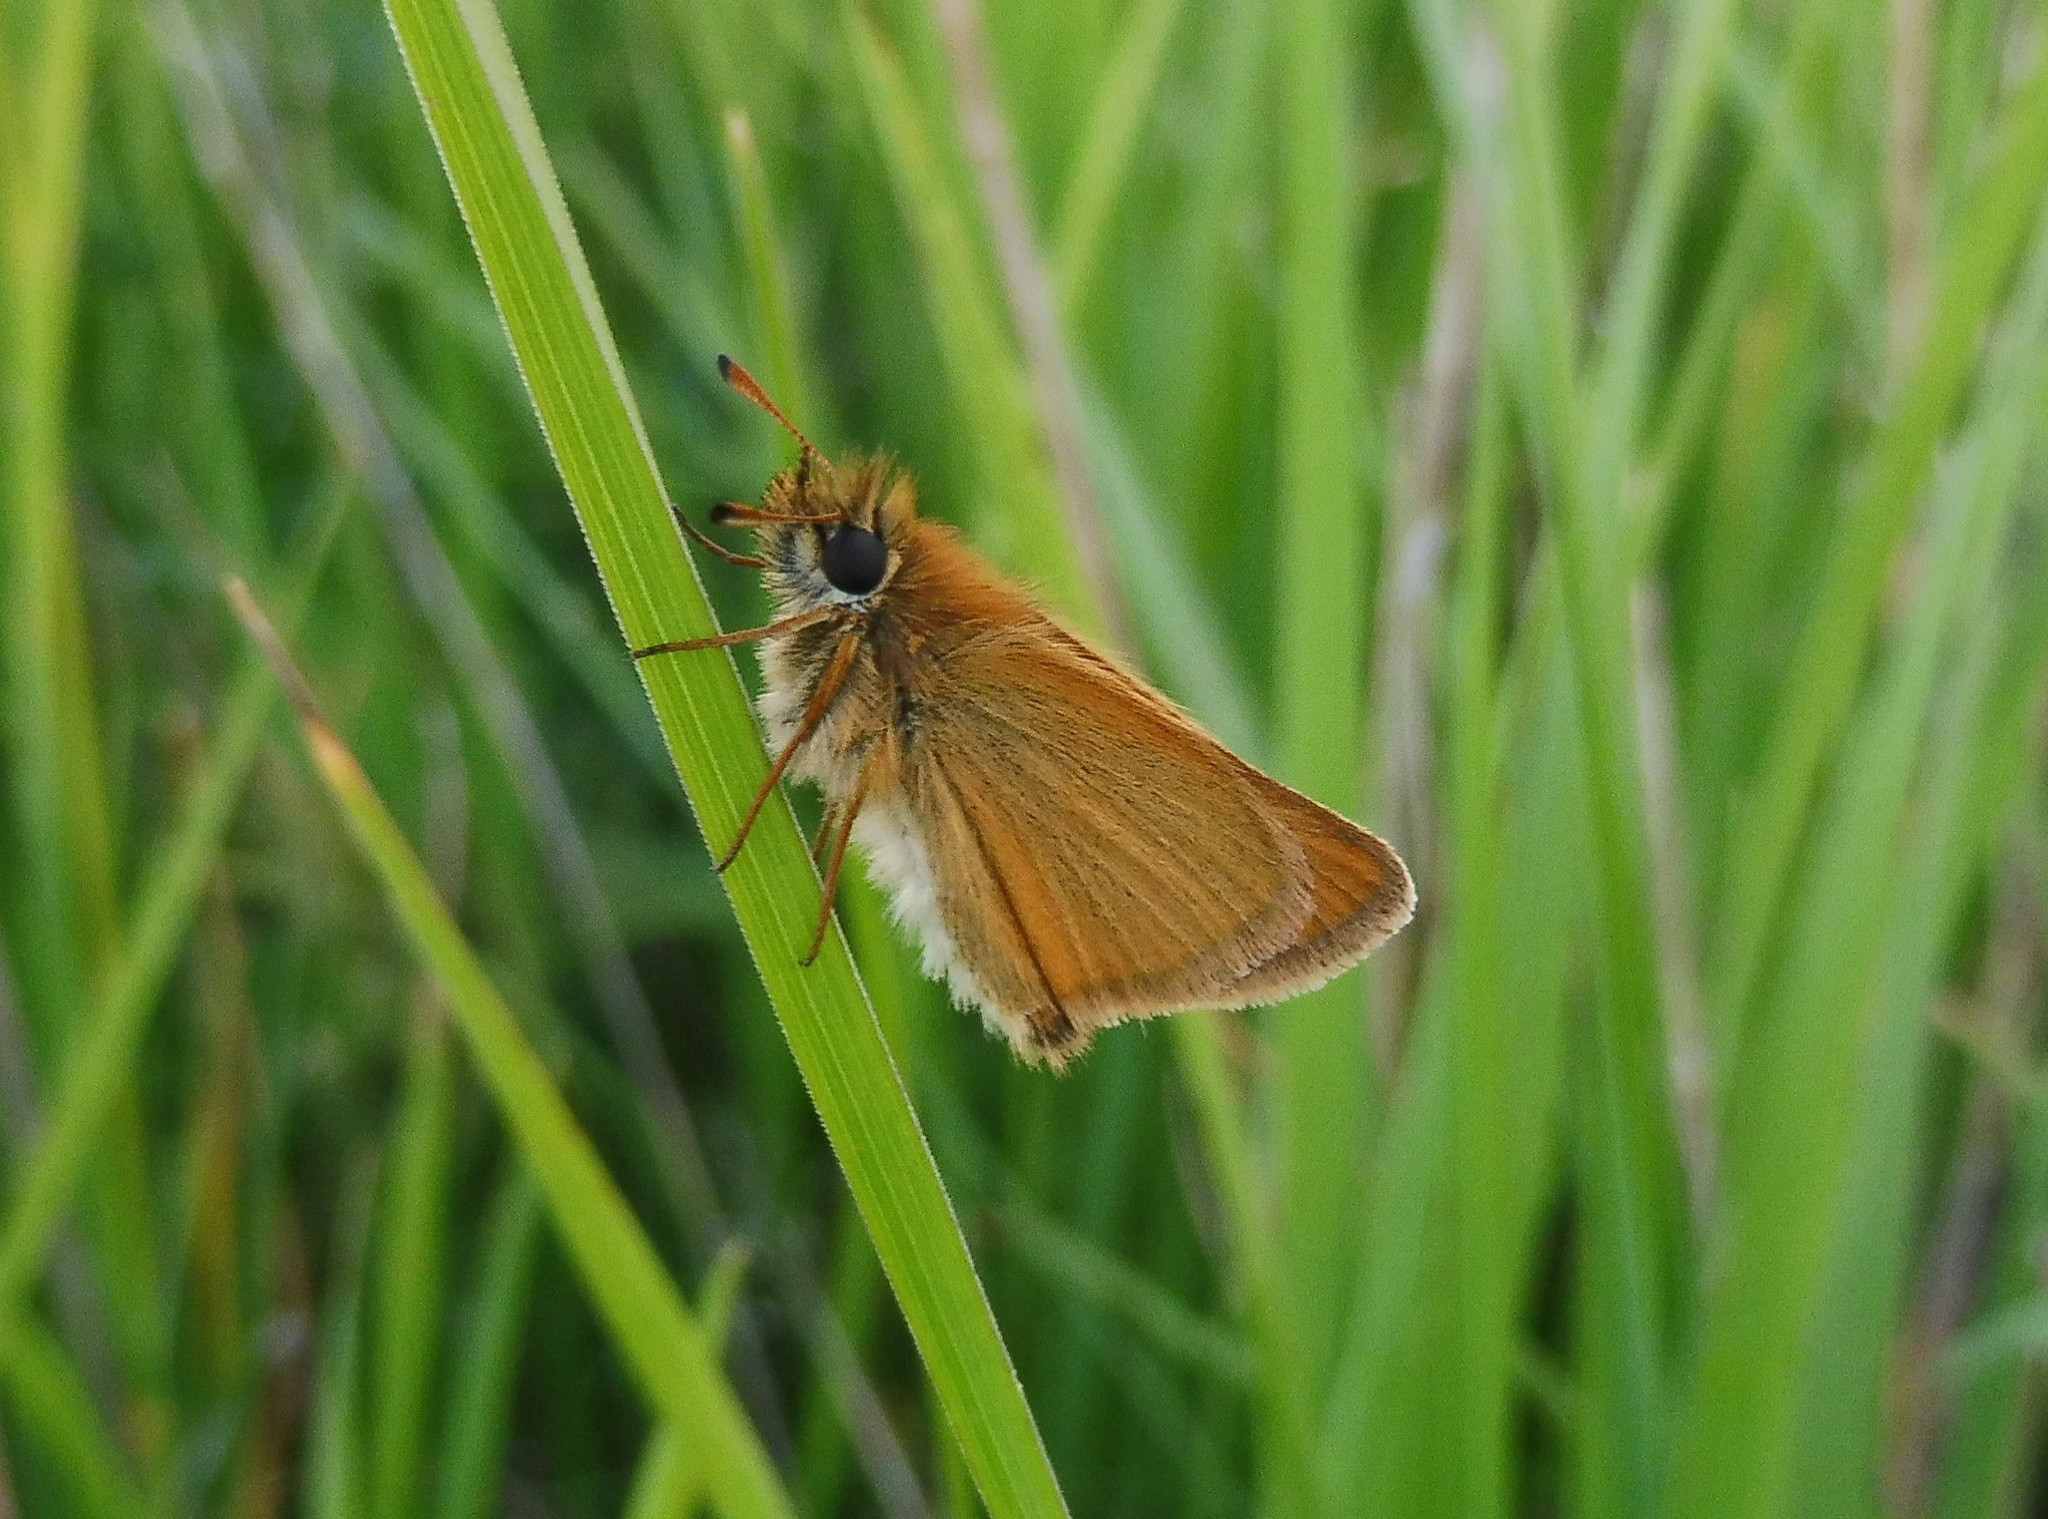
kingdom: Animalia
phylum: Arthropoda
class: Insecta
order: Lepidoptera
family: Hesperiidae
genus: Thymelicus
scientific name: Thymelicus lineola
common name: Essex skipper
